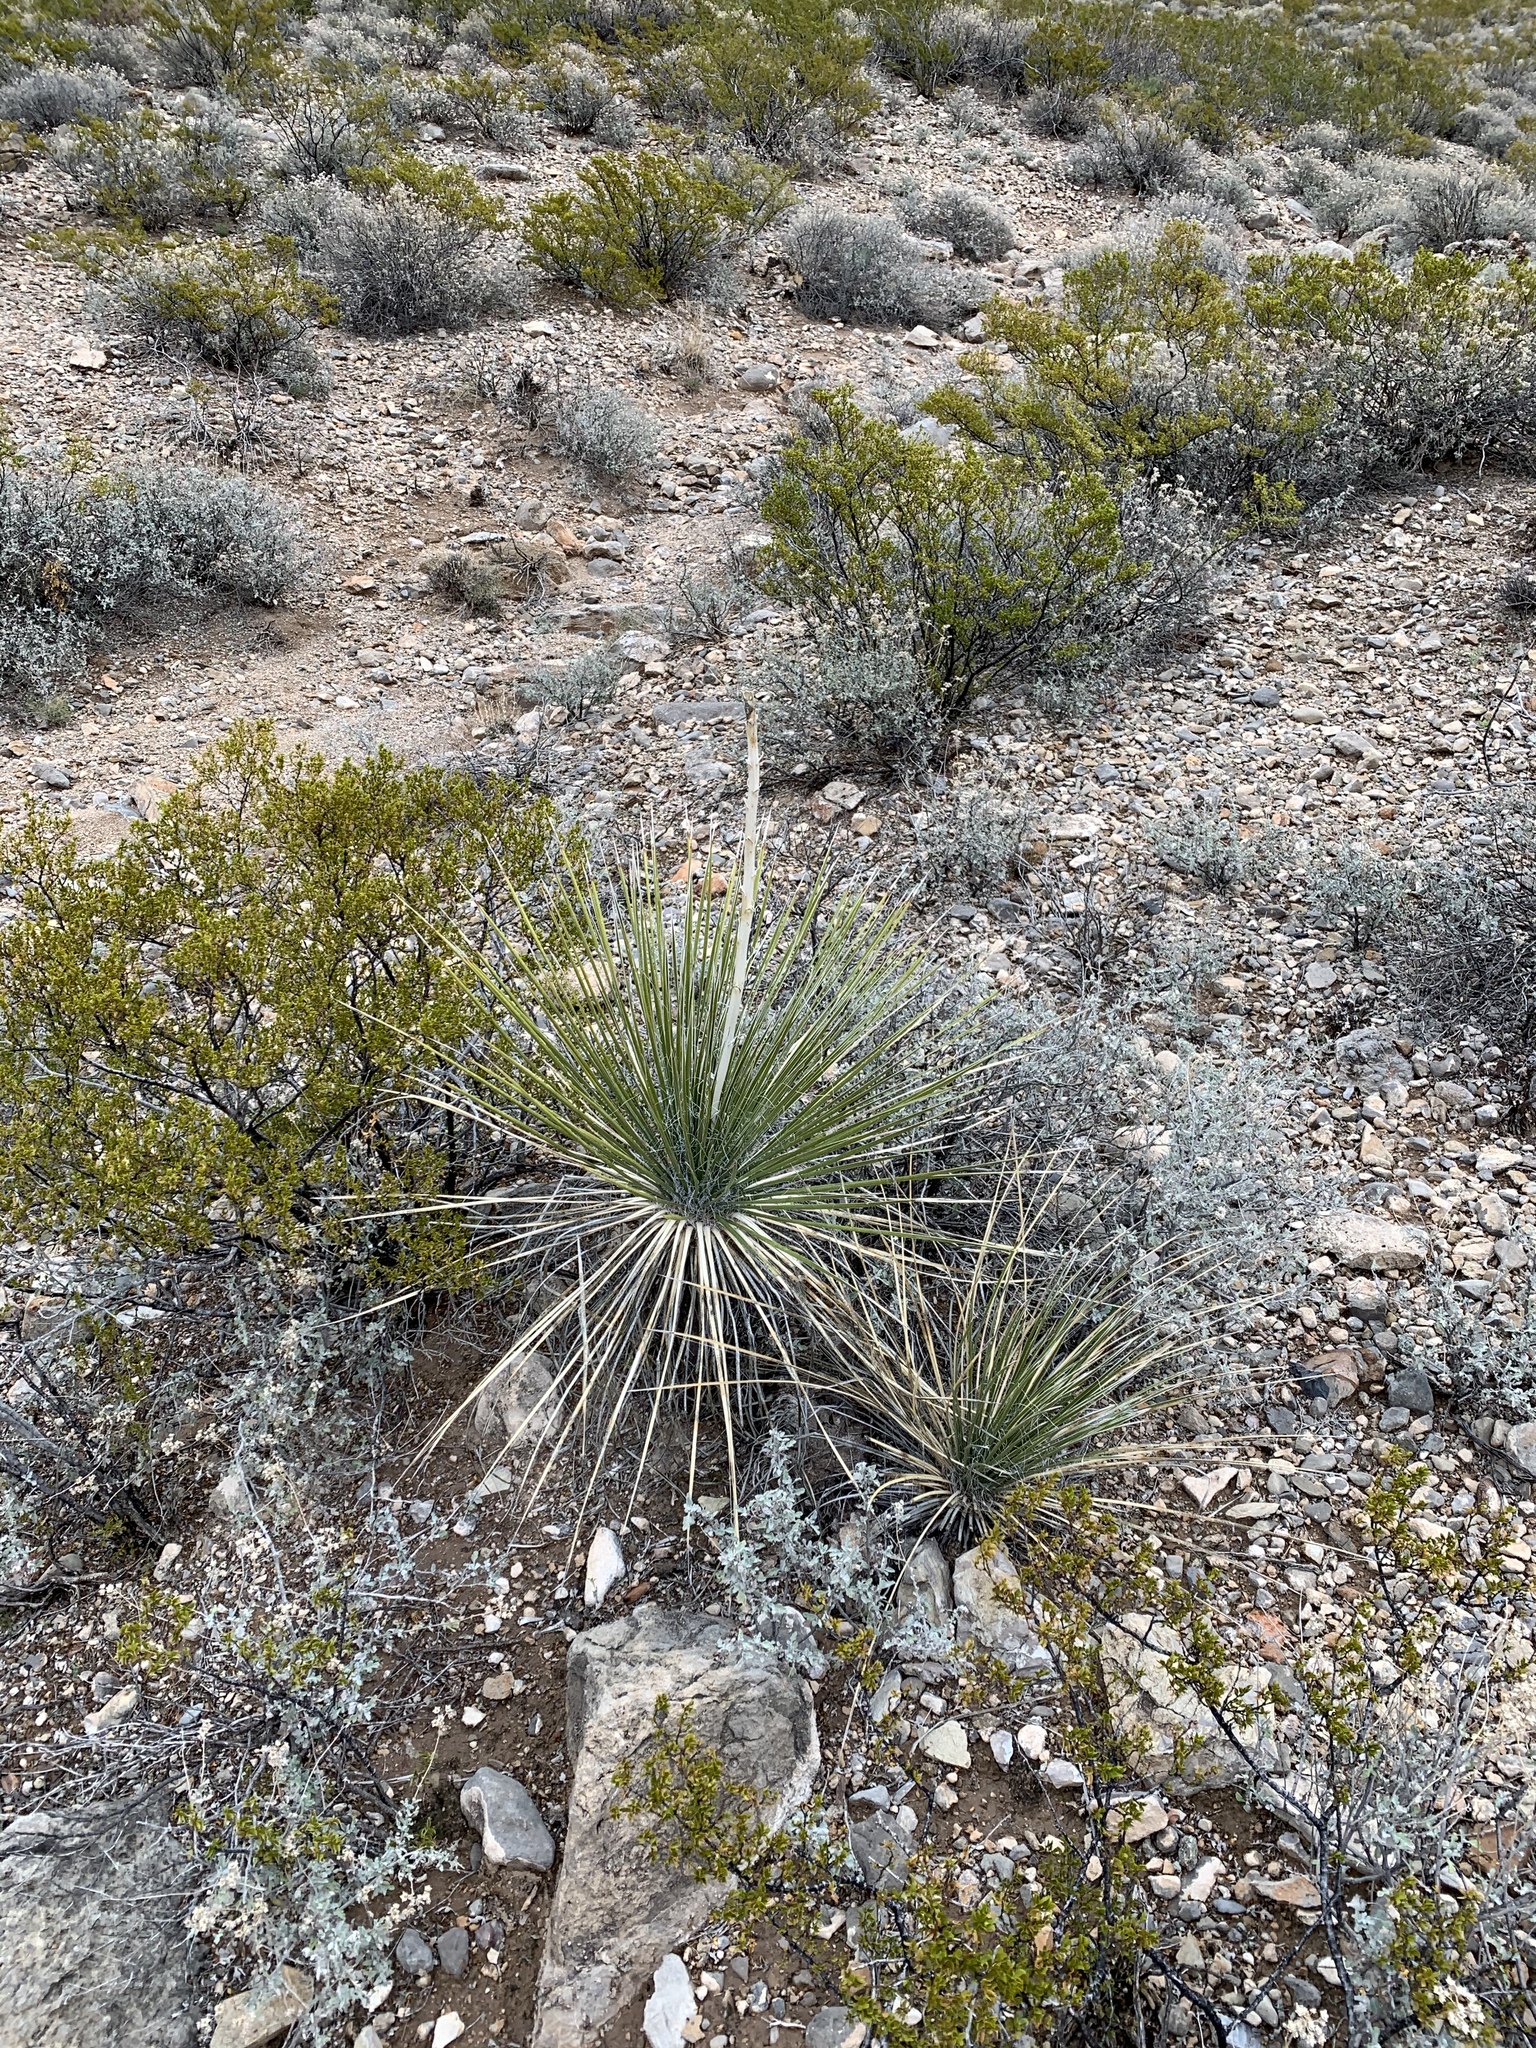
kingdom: Plantae
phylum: Tracheophyta
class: Liliopsida
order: Asparagales
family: Asparagaceae
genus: Yucca
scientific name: Yucca elata
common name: Palmella
